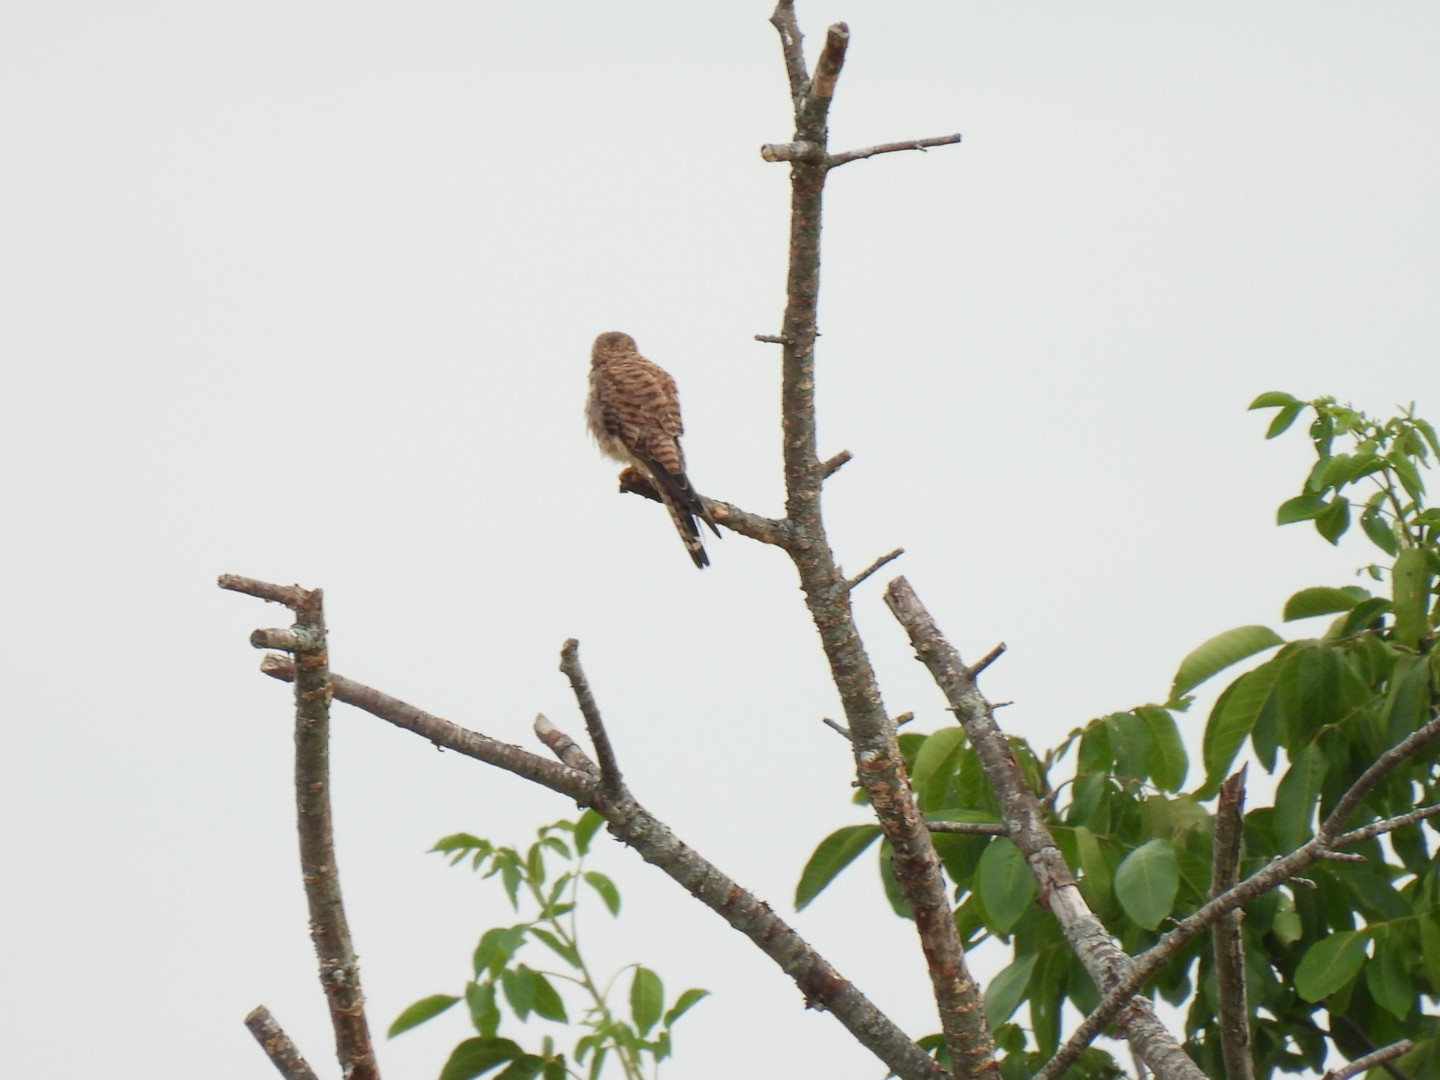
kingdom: Animalia
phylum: Chordata
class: Aves
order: Falconiformes
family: Falconidae
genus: Falco
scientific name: Falco tinnunculus
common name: Common kestrel
